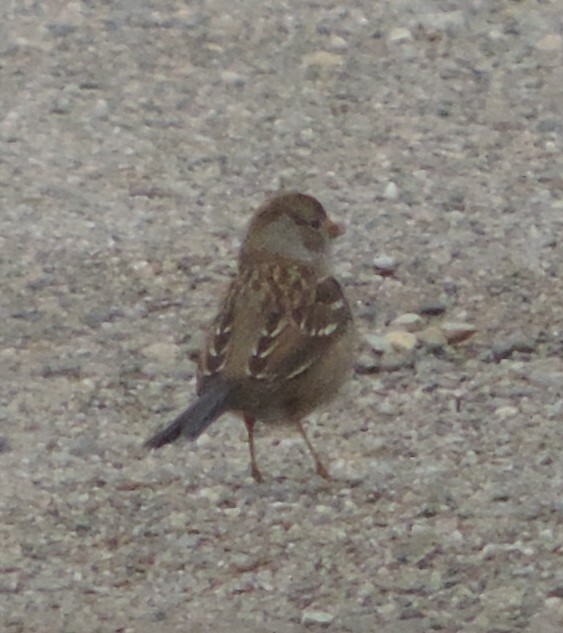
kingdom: Animalia
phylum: Chordata
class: Aves
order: Passeriformes
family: Passerellidae
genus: Zonotrichia
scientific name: Zonotrichia leucophrys
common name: White-crowned sparrow
